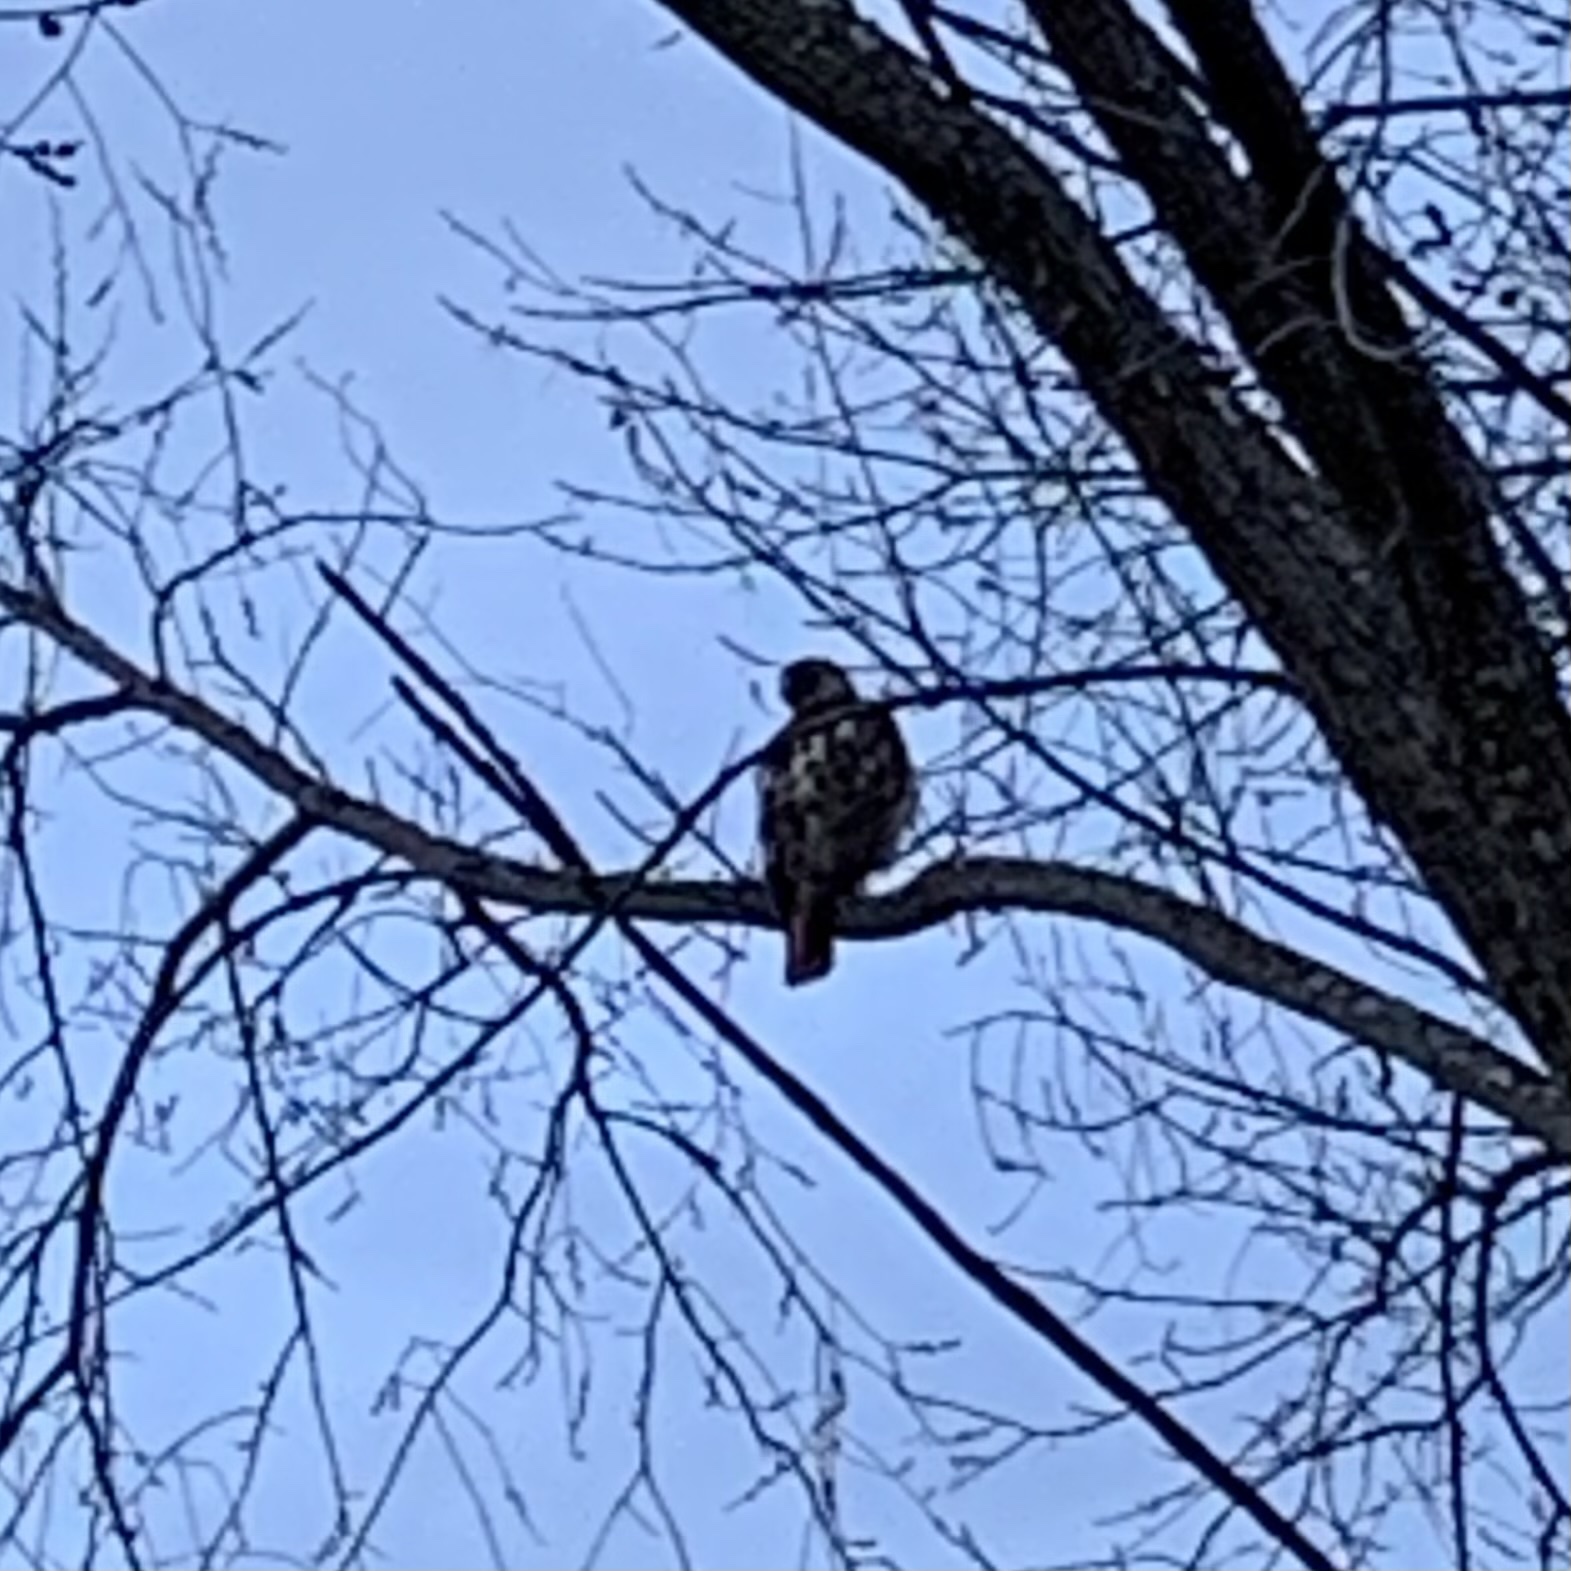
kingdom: Animalia
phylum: Chordata
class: Aves
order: Accipitriformes
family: Accipitridae
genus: Buteo
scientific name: Buteo jamaicensis
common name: Red-tailed hawk
